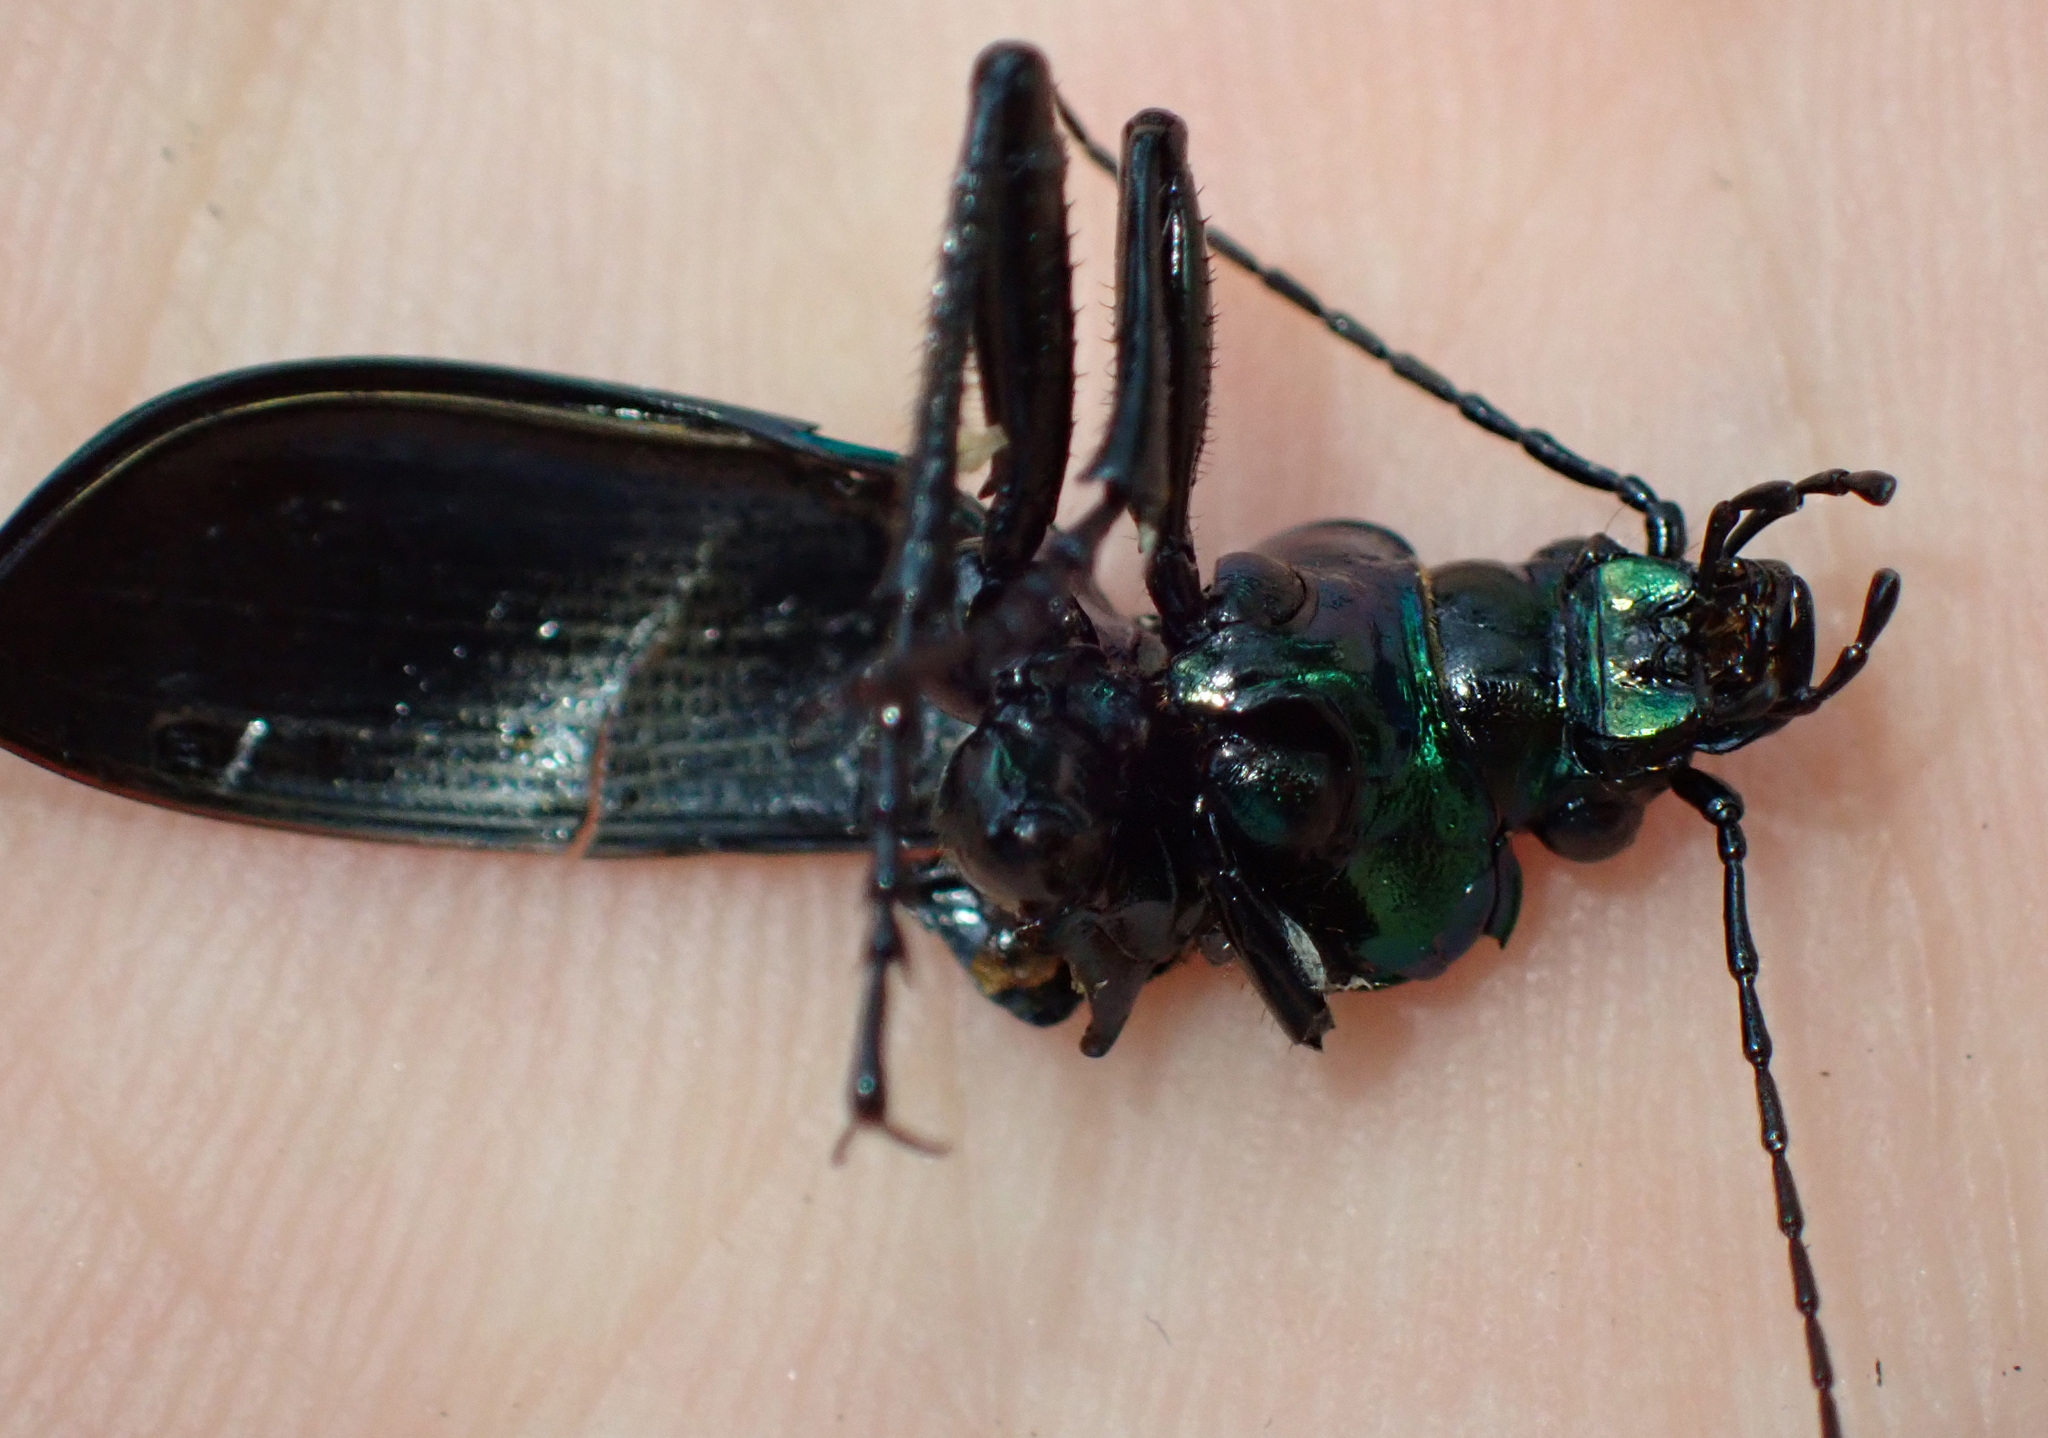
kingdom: Animalia
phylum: Arthropoda
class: Insecta
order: Coleoptera
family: Carabidae
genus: Calosoma
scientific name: Calosoma inquisitor
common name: Caterpillar-hunter
